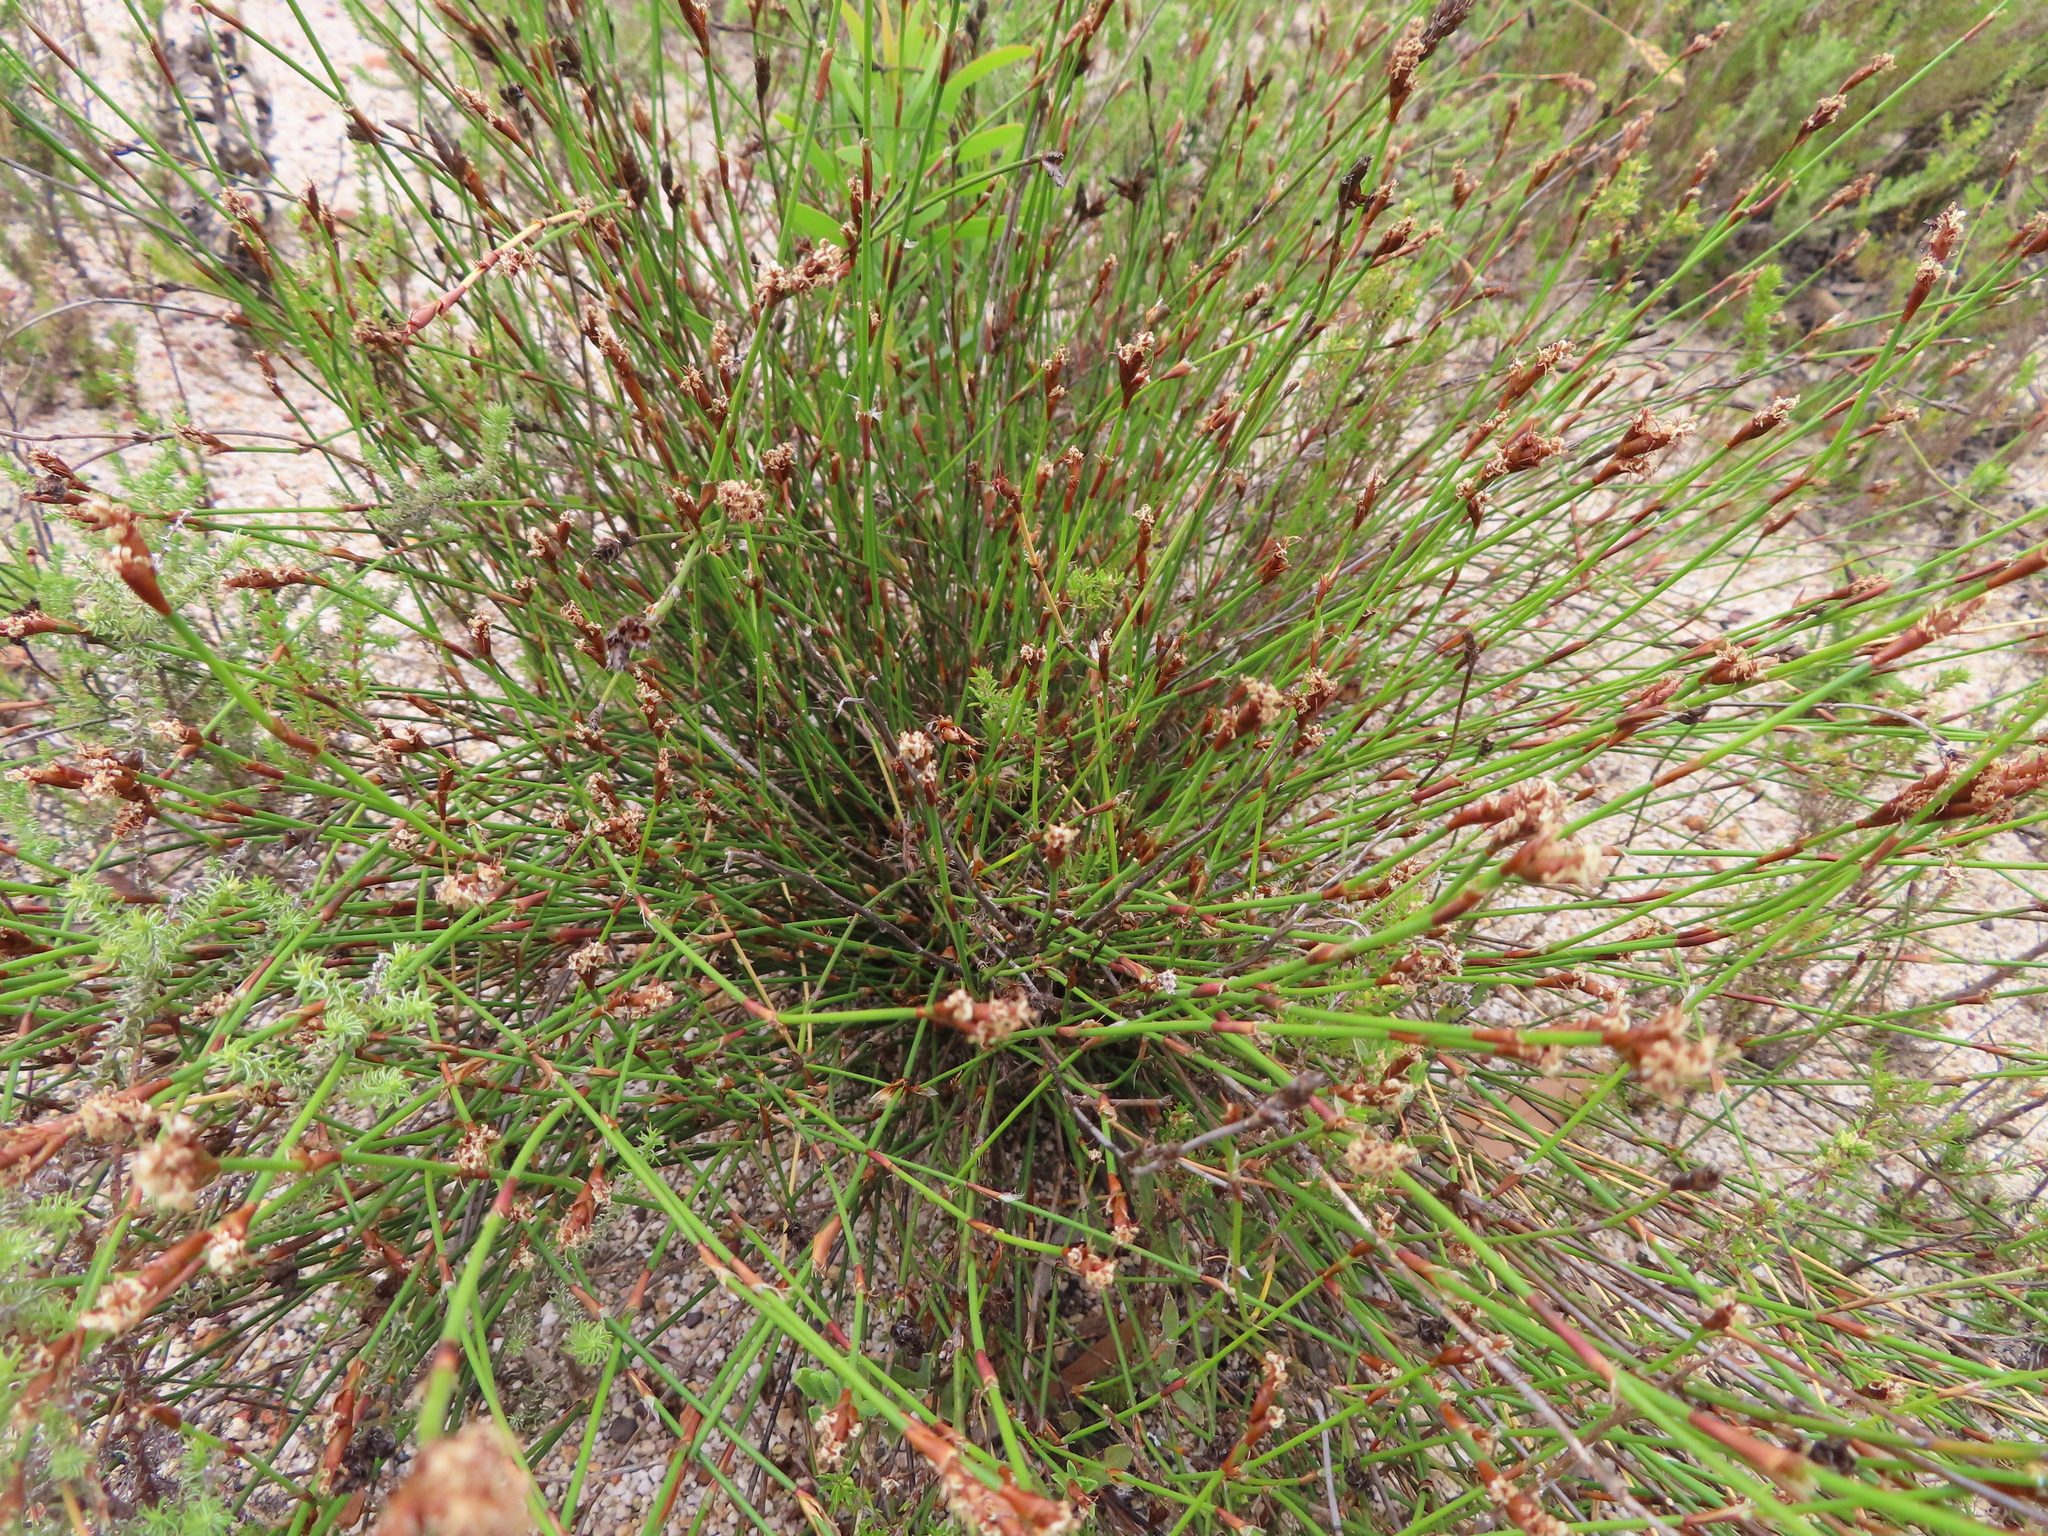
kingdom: Plantae
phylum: Tracheophyta
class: Liliopsida
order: Poales
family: Restionaceae
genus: Restio
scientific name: Restio capensis
